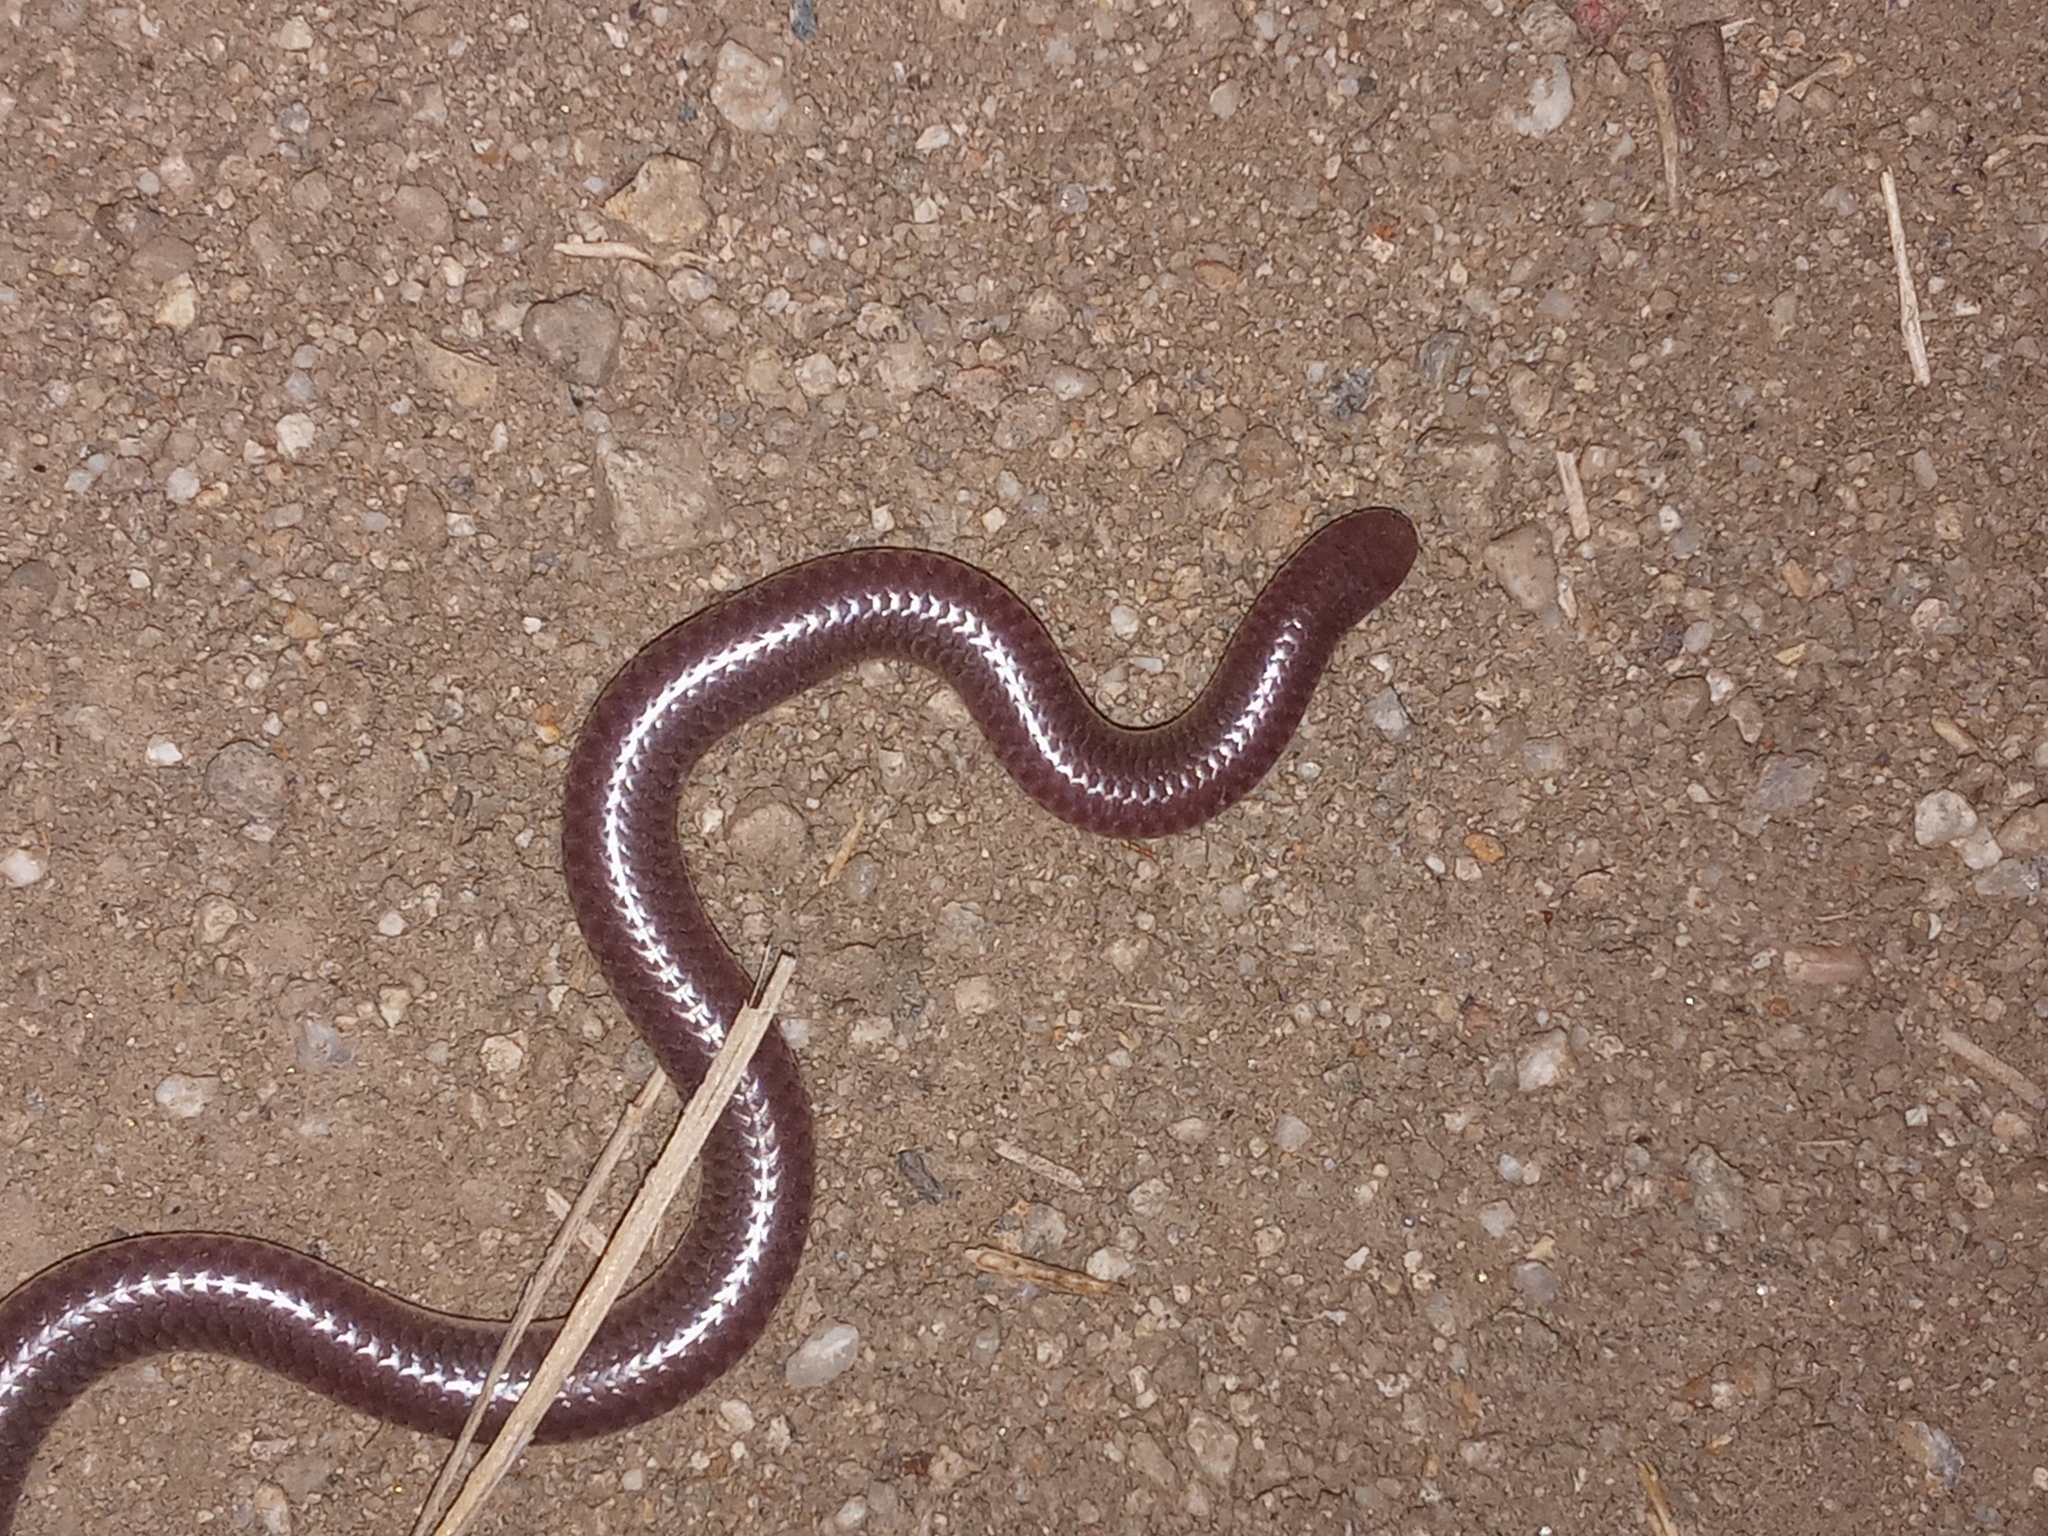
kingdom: Animalia
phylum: Chordata
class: Squamata
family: Leptotyphlopidae
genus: Rena
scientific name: Rena humilis
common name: Western threadsnake
